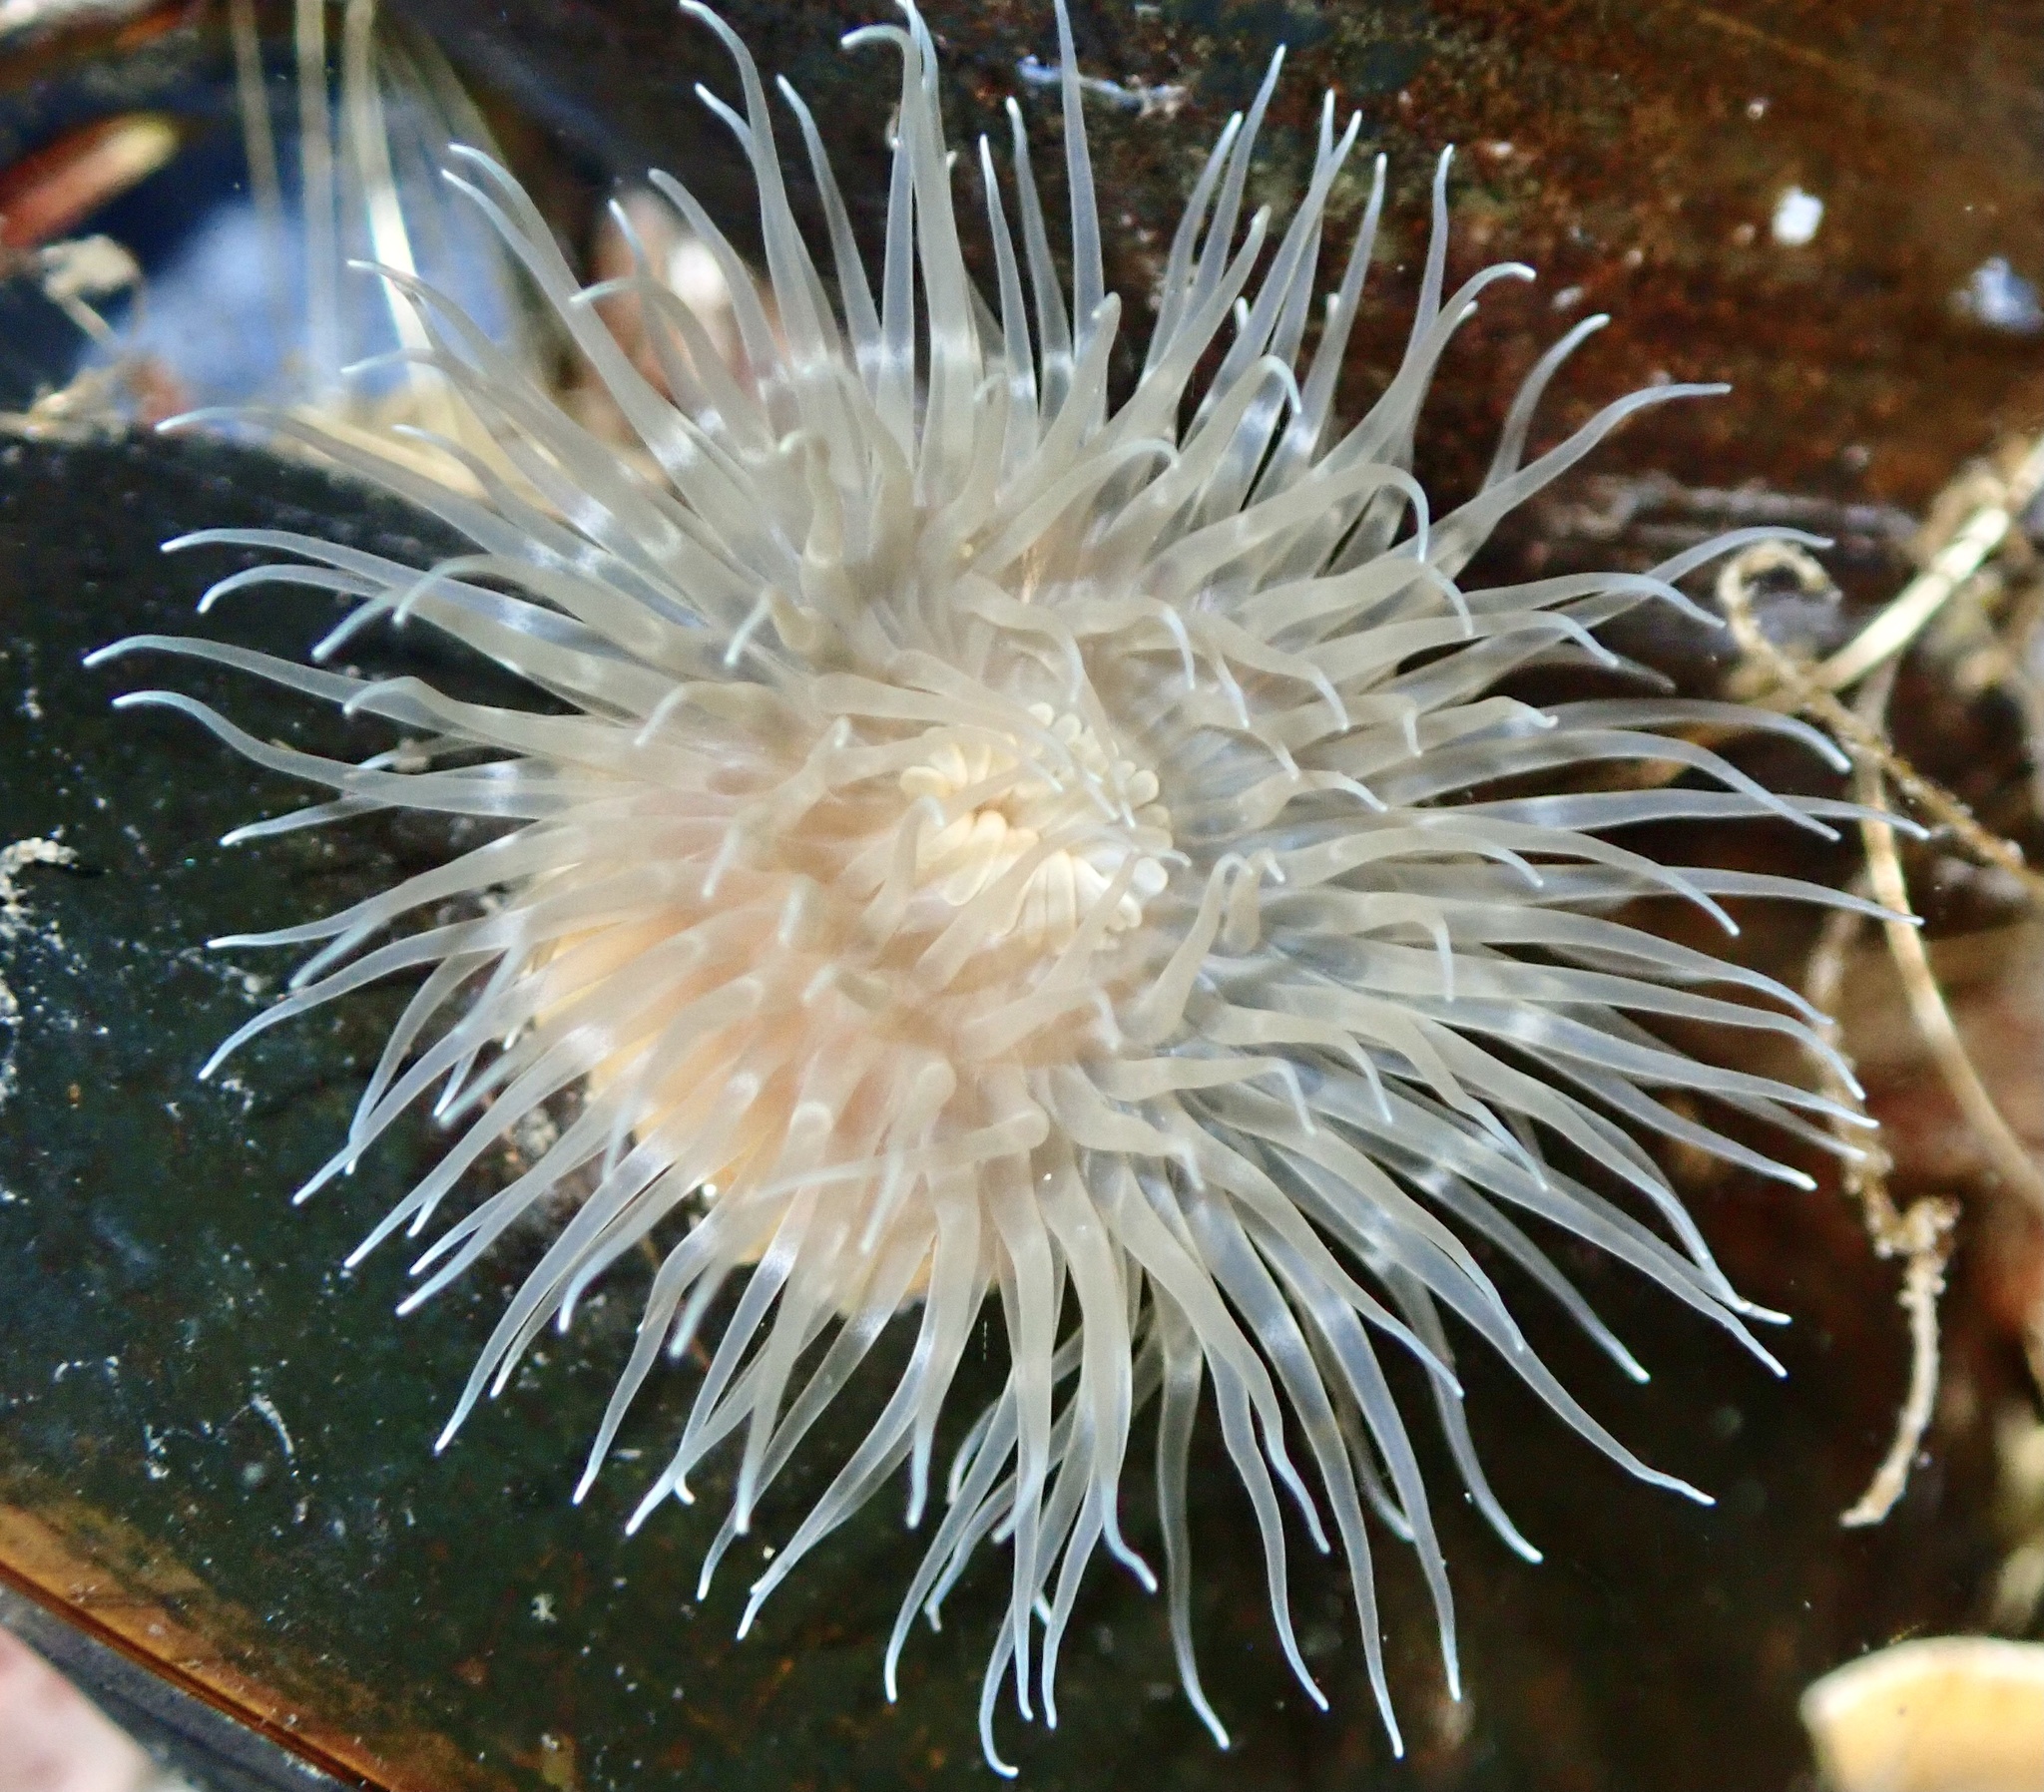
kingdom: Animalia
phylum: Cnidaria
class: Anthozoa
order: Actiniaria
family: Metridiidae
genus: Metridium
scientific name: Metridium senile
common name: Clonal plumose anemone
